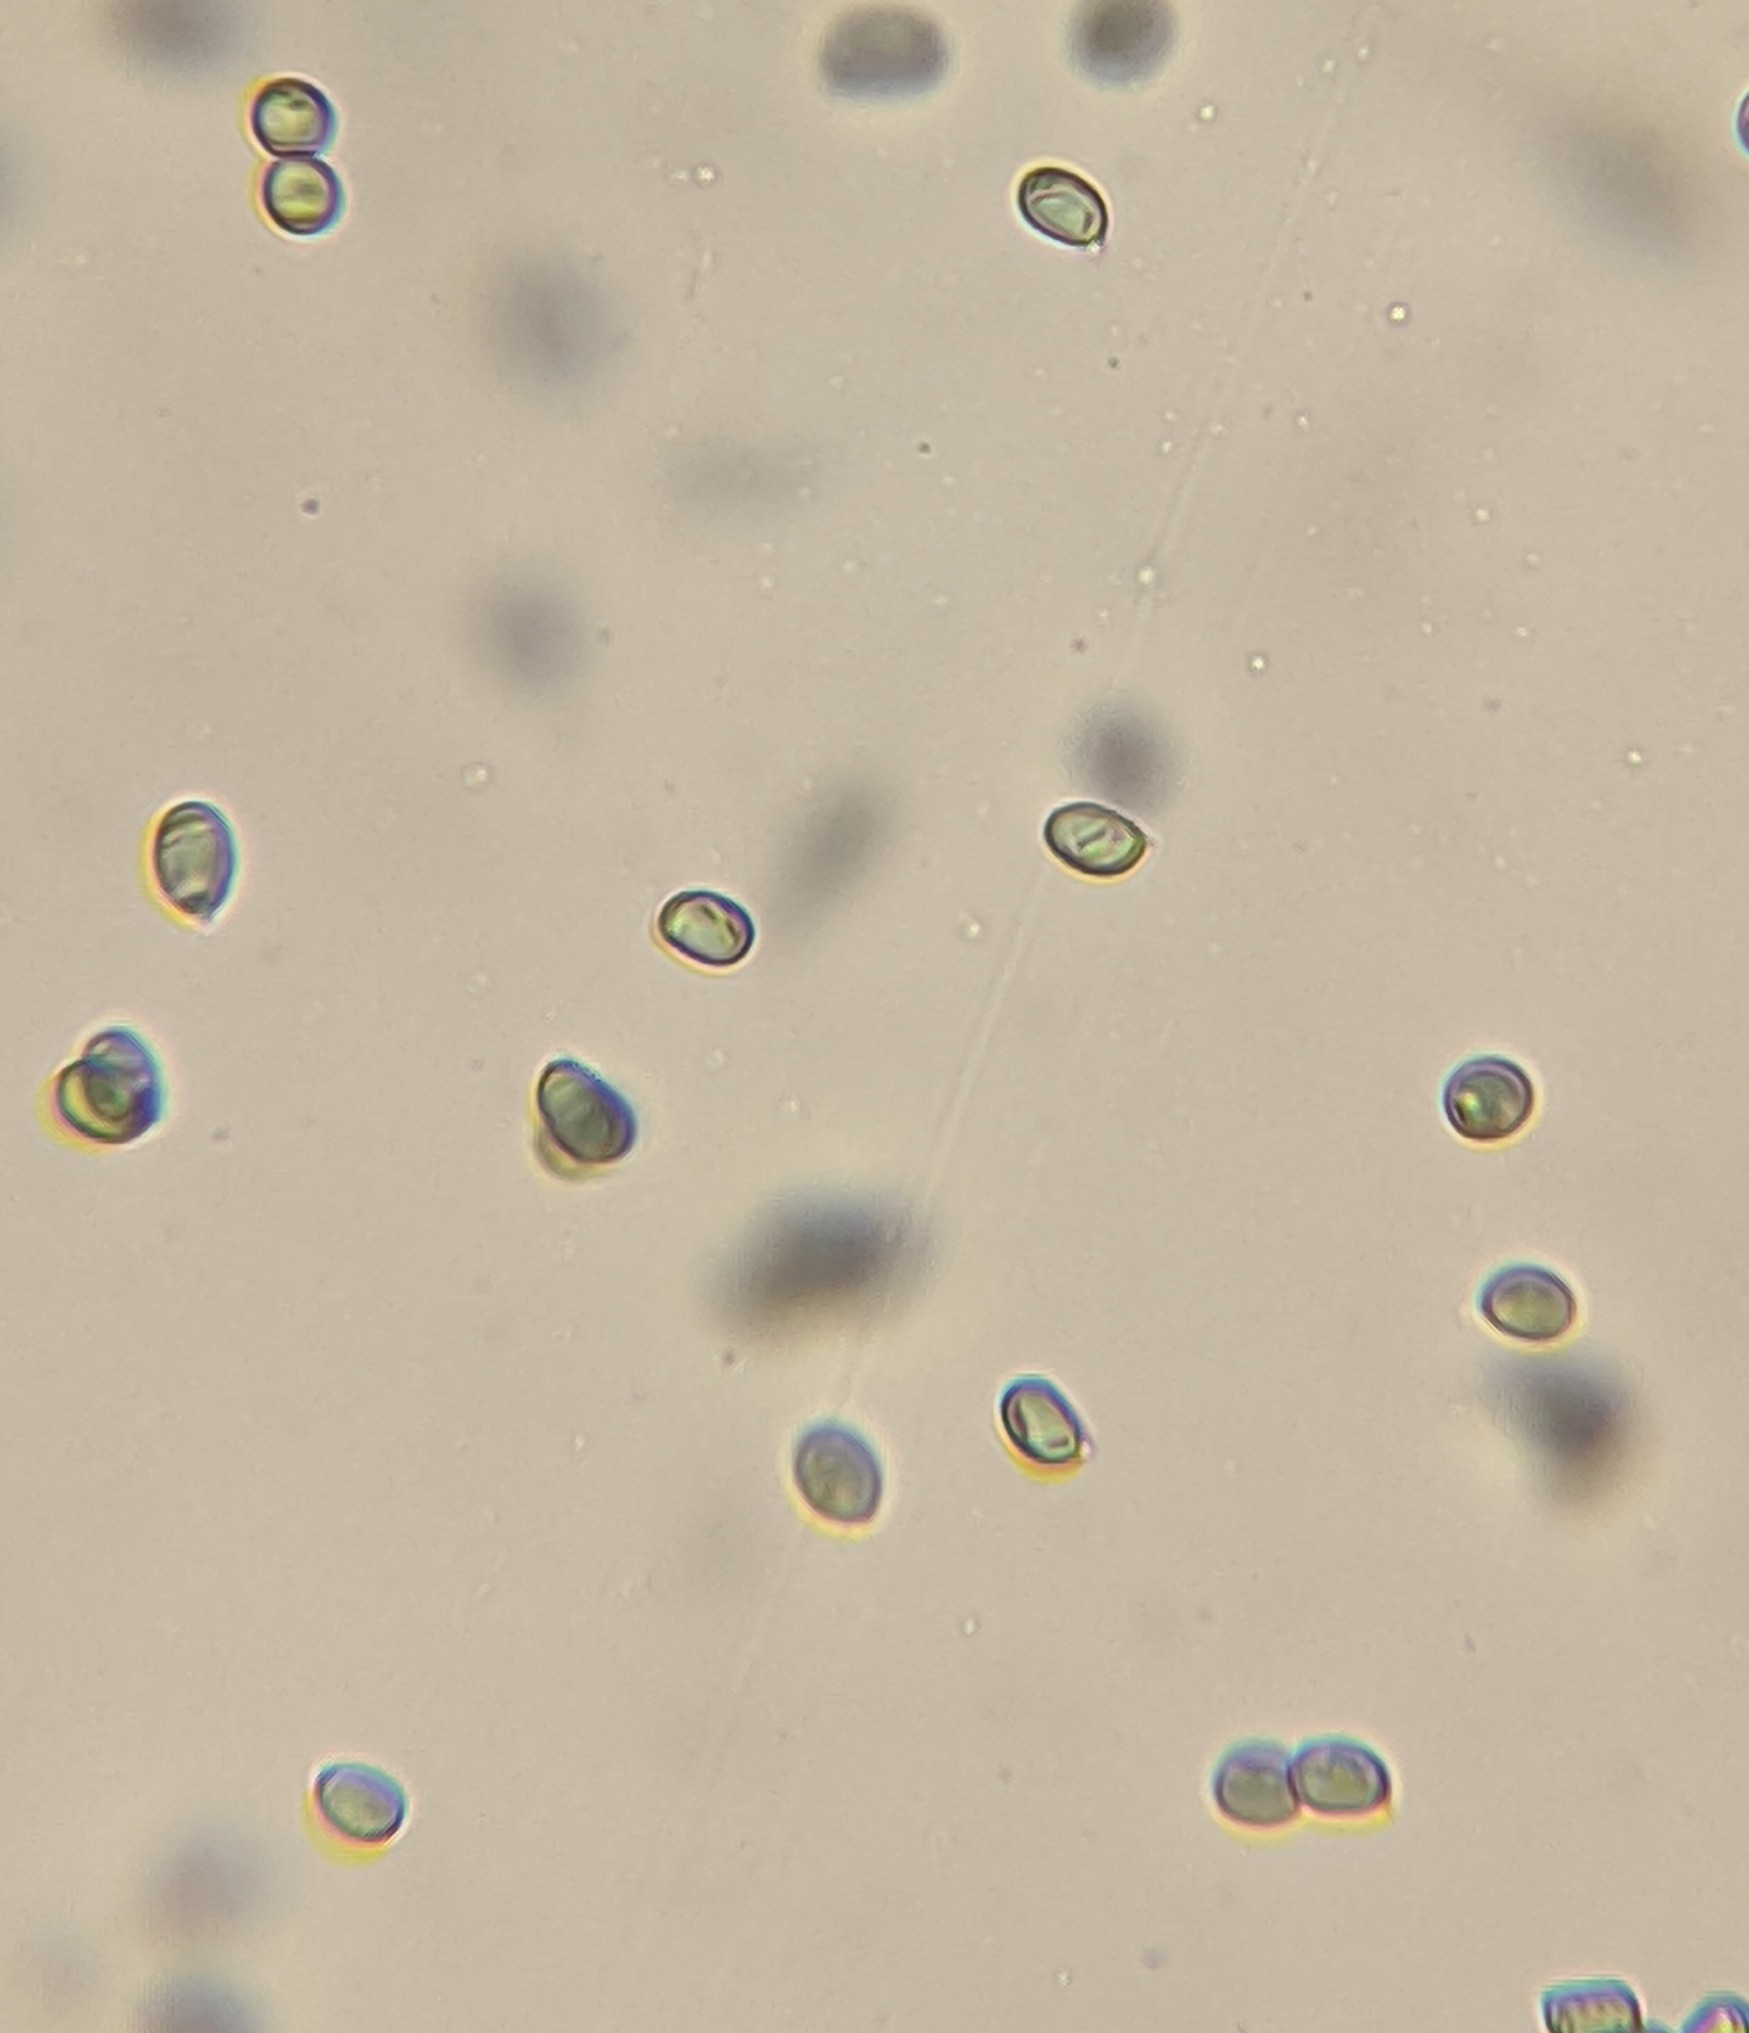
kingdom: Fungi
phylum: Basidiomycota
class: Agaricomycetes
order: Agaricales
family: Amanitaceae
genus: Amanita
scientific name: Amanita canescens
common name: Golden threads lepidella
